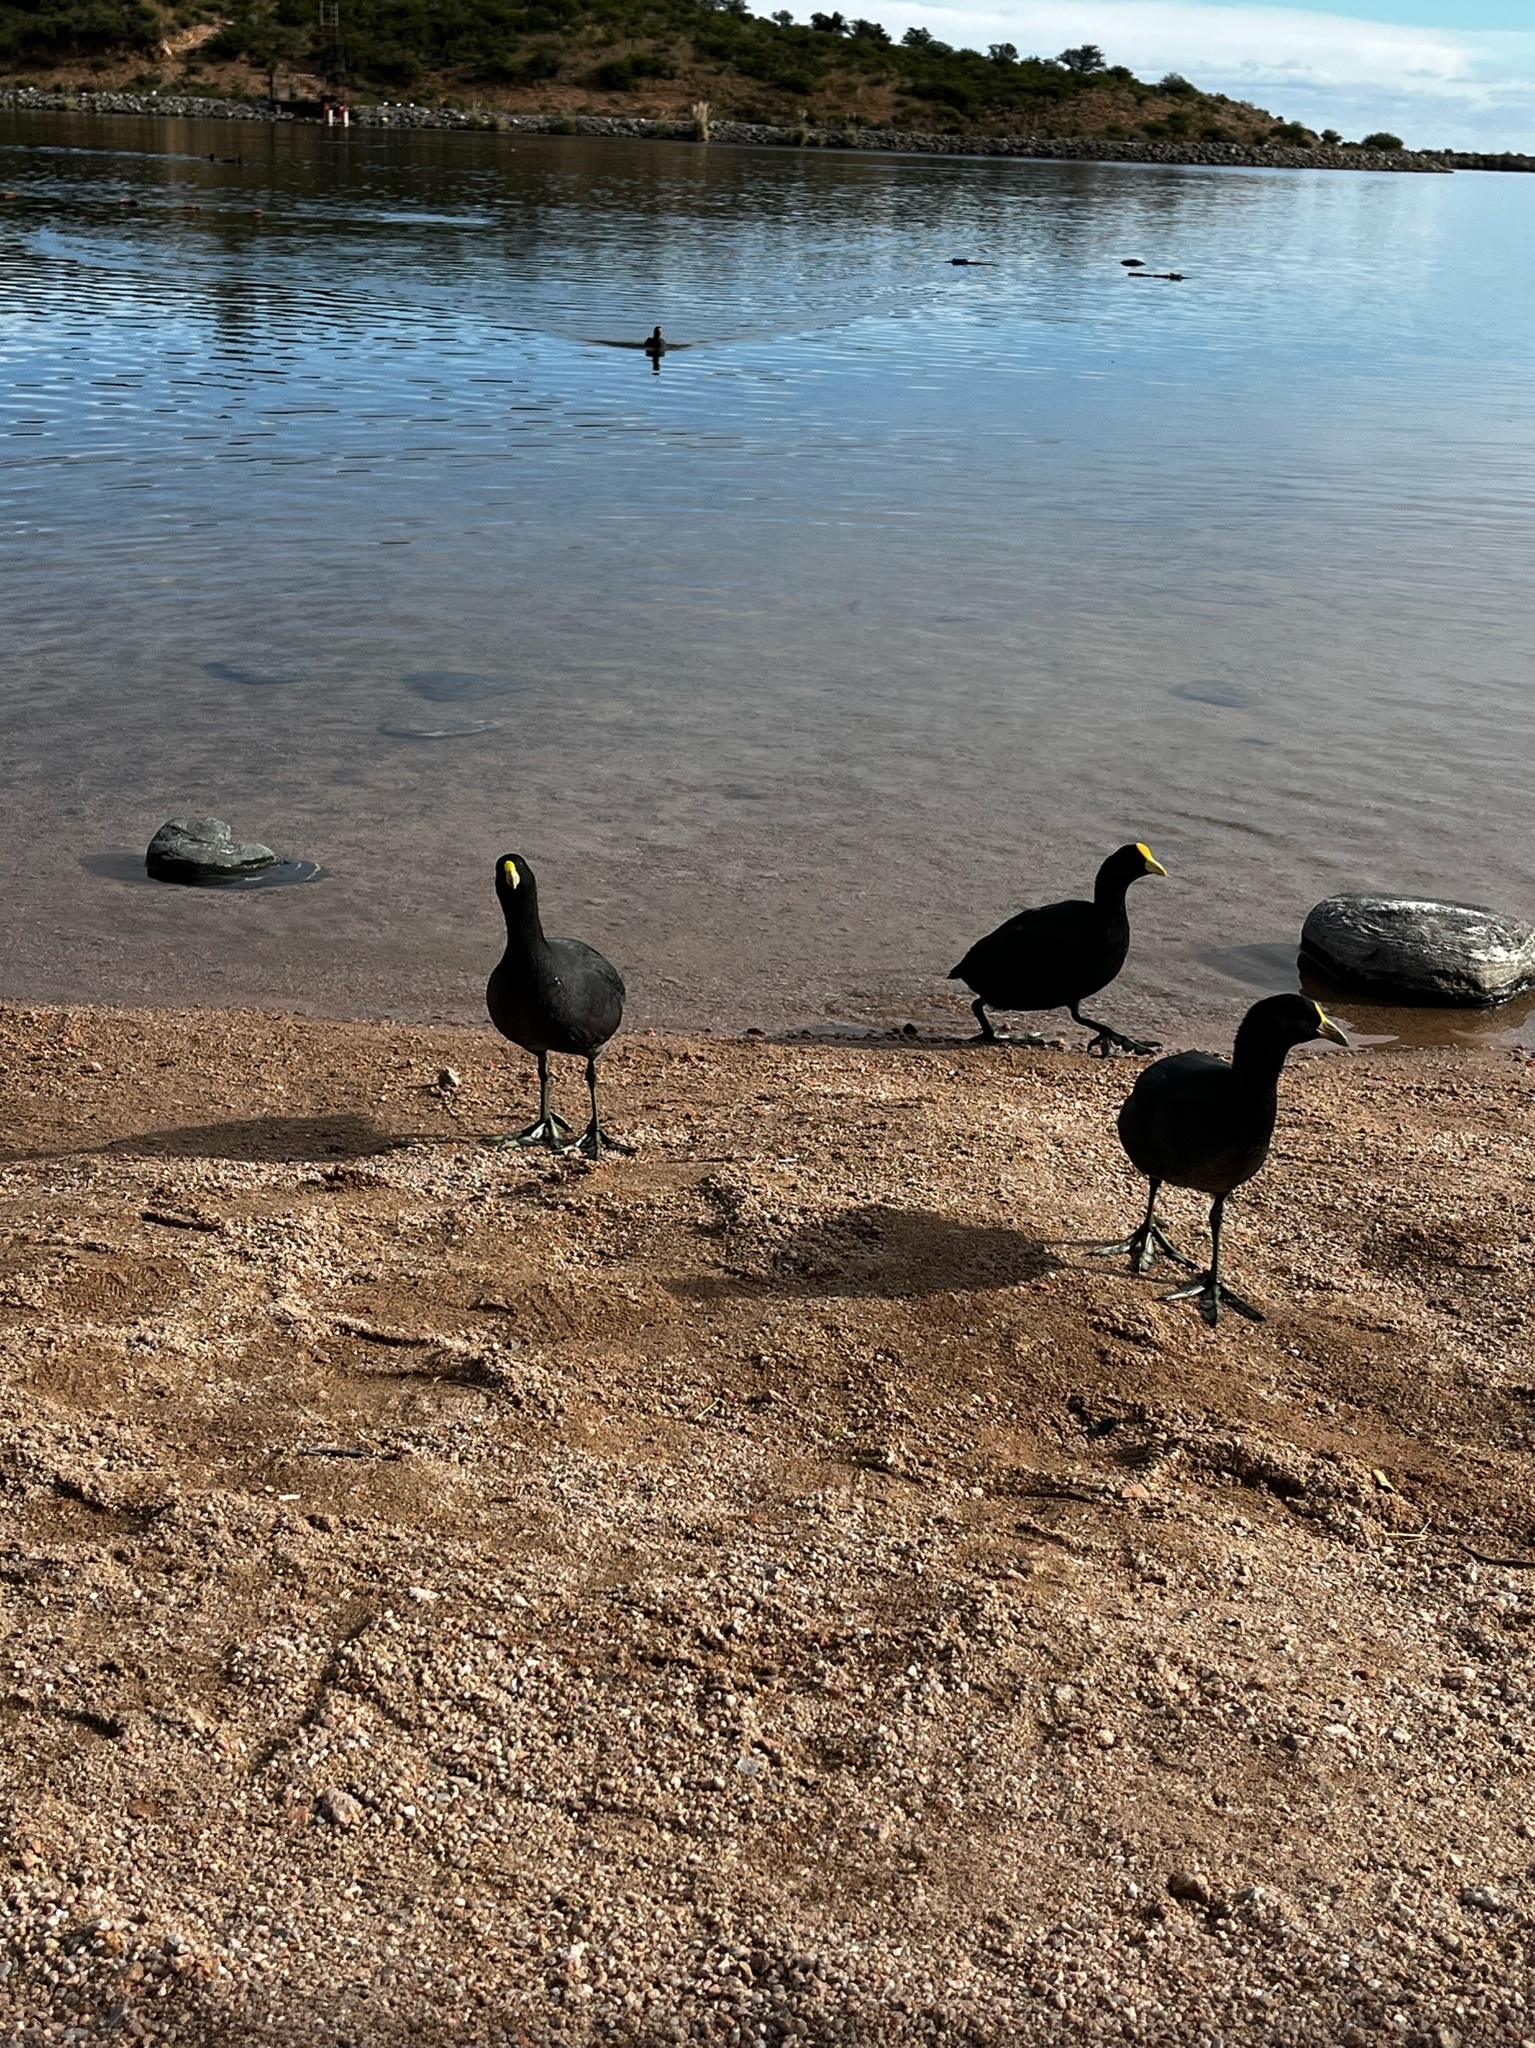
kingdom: Animalia
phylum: Chordata
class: Aves
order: Gruiformes
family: Rallidae
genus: Fulica
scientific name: Fulica leucoptera
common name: White-winged coot
